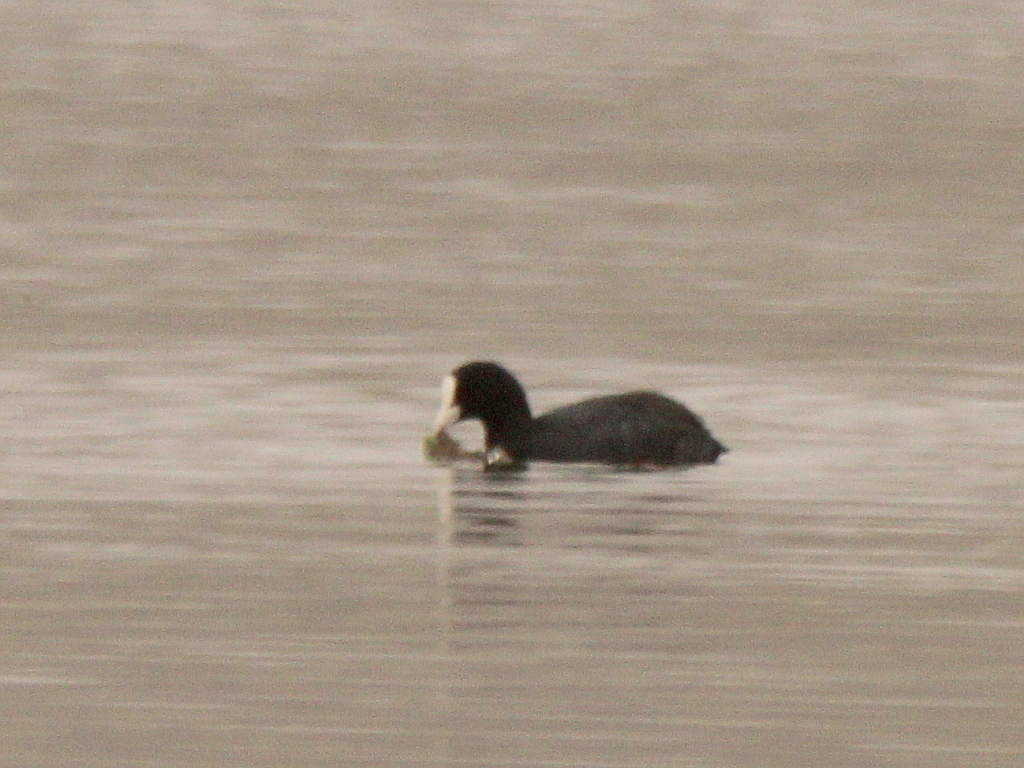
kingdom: Animalia
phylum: Chordata
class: Aves
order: Gruiformes
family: Rallidae
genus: Fulica
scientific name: Fulica atra
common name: Eurasian coot
